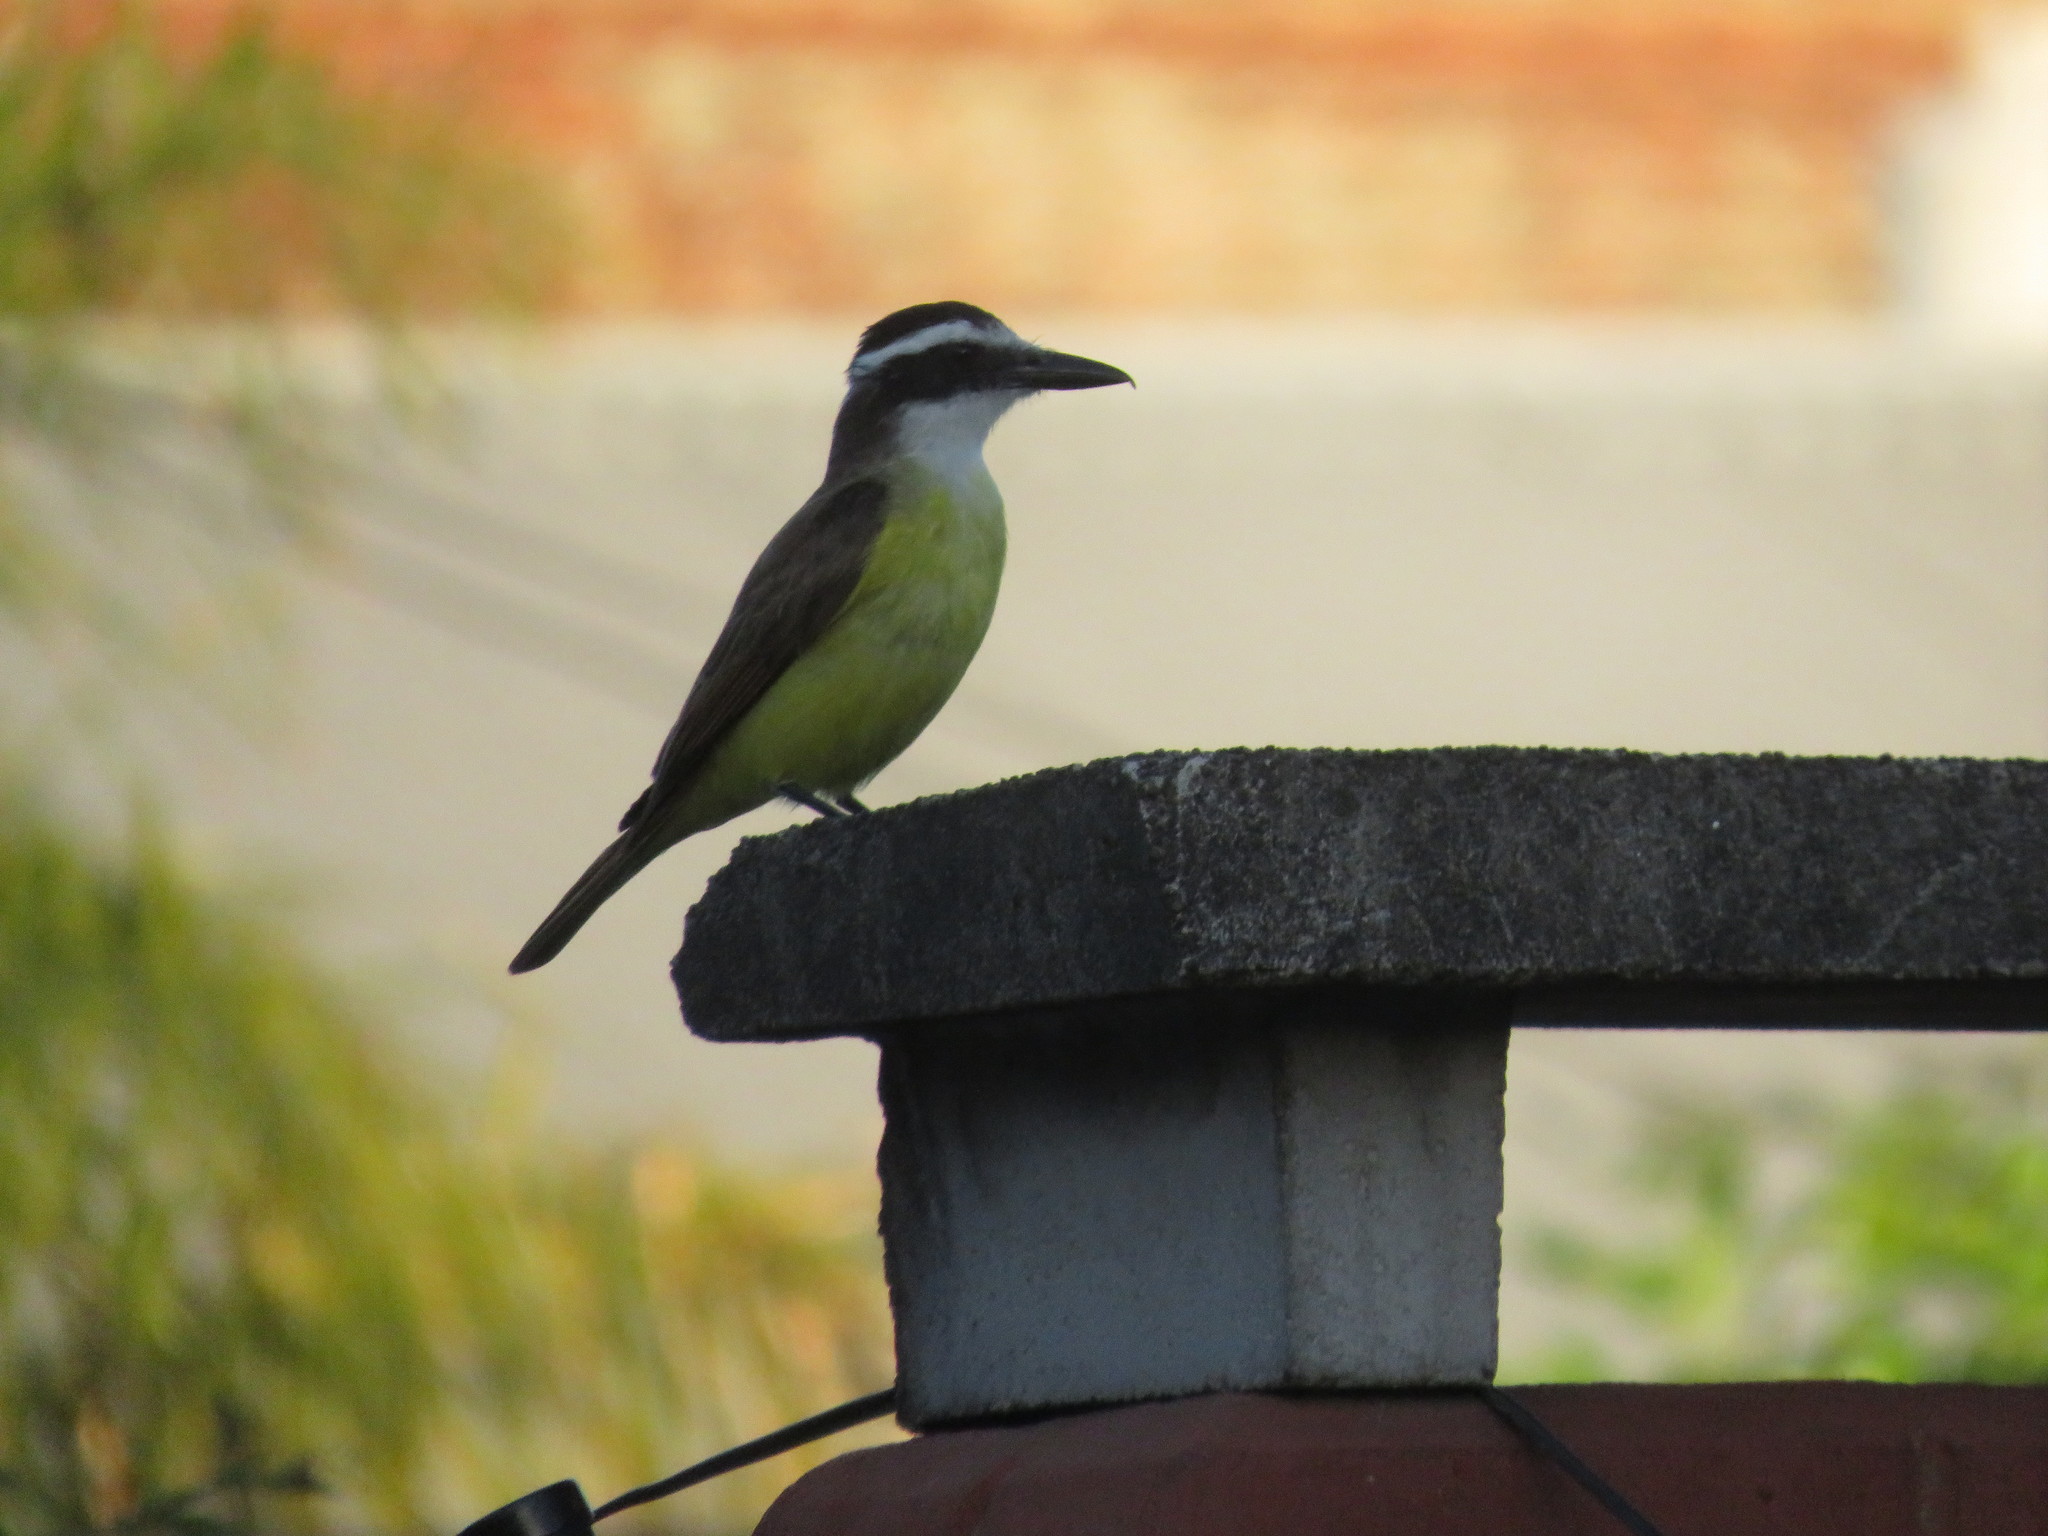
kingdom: Animalia
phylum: Chordata
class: Aves
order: Passeriformes
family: Tyrannidae
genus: Pitangus
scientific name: Pitangus sulphuratus
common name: Great kiskadee
